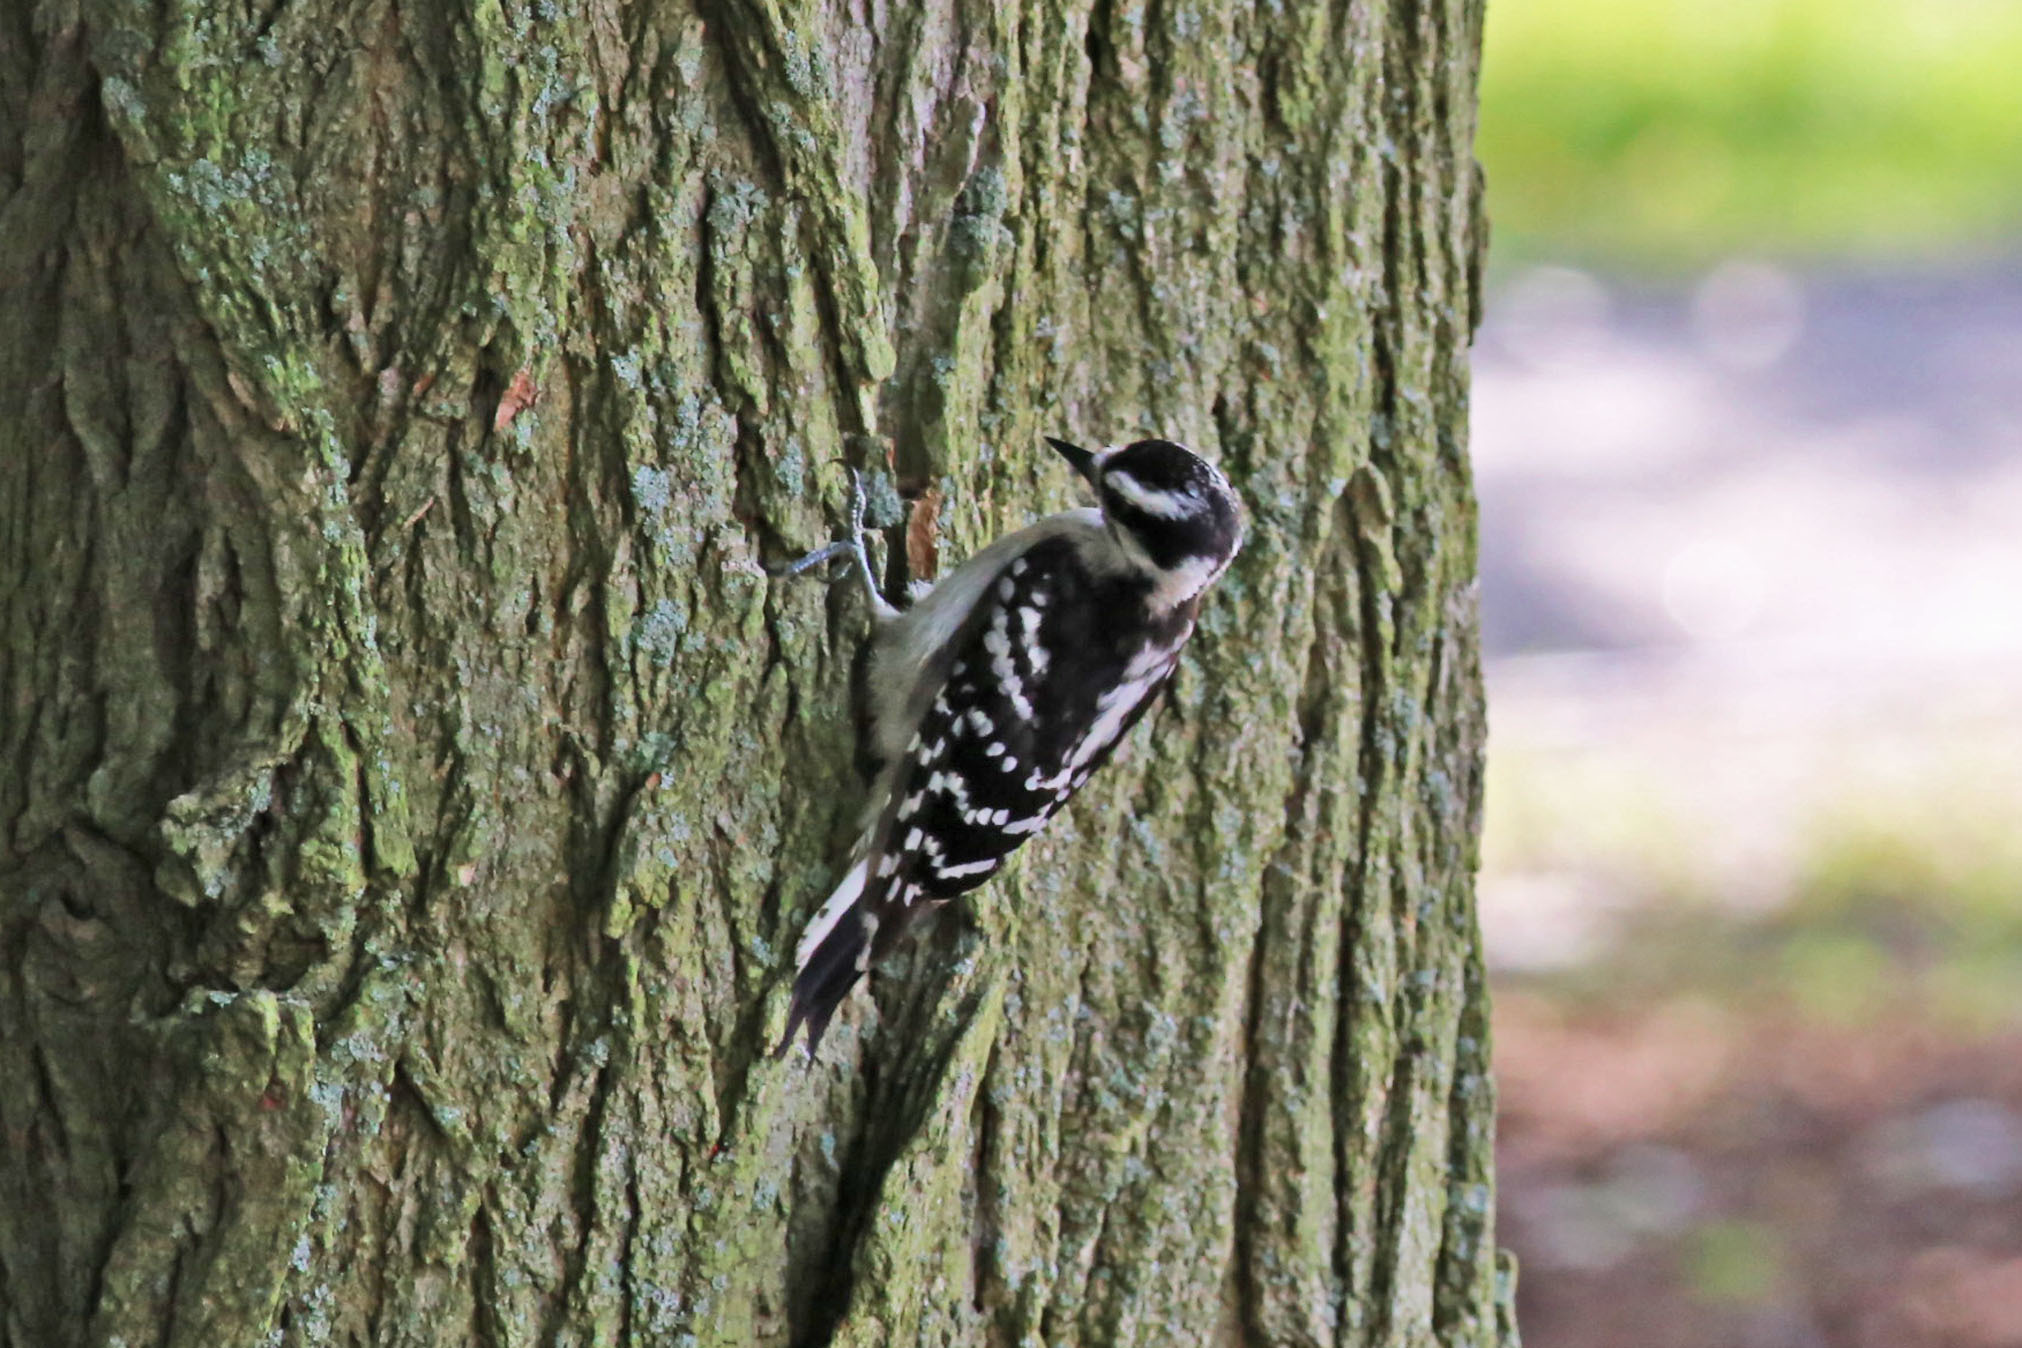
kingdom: Animalia
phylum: Chordata
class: Aves
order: Piciformes
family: Picidae
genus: Dryobates
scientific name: Dryobates pubescens
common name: Downy woodpecker
